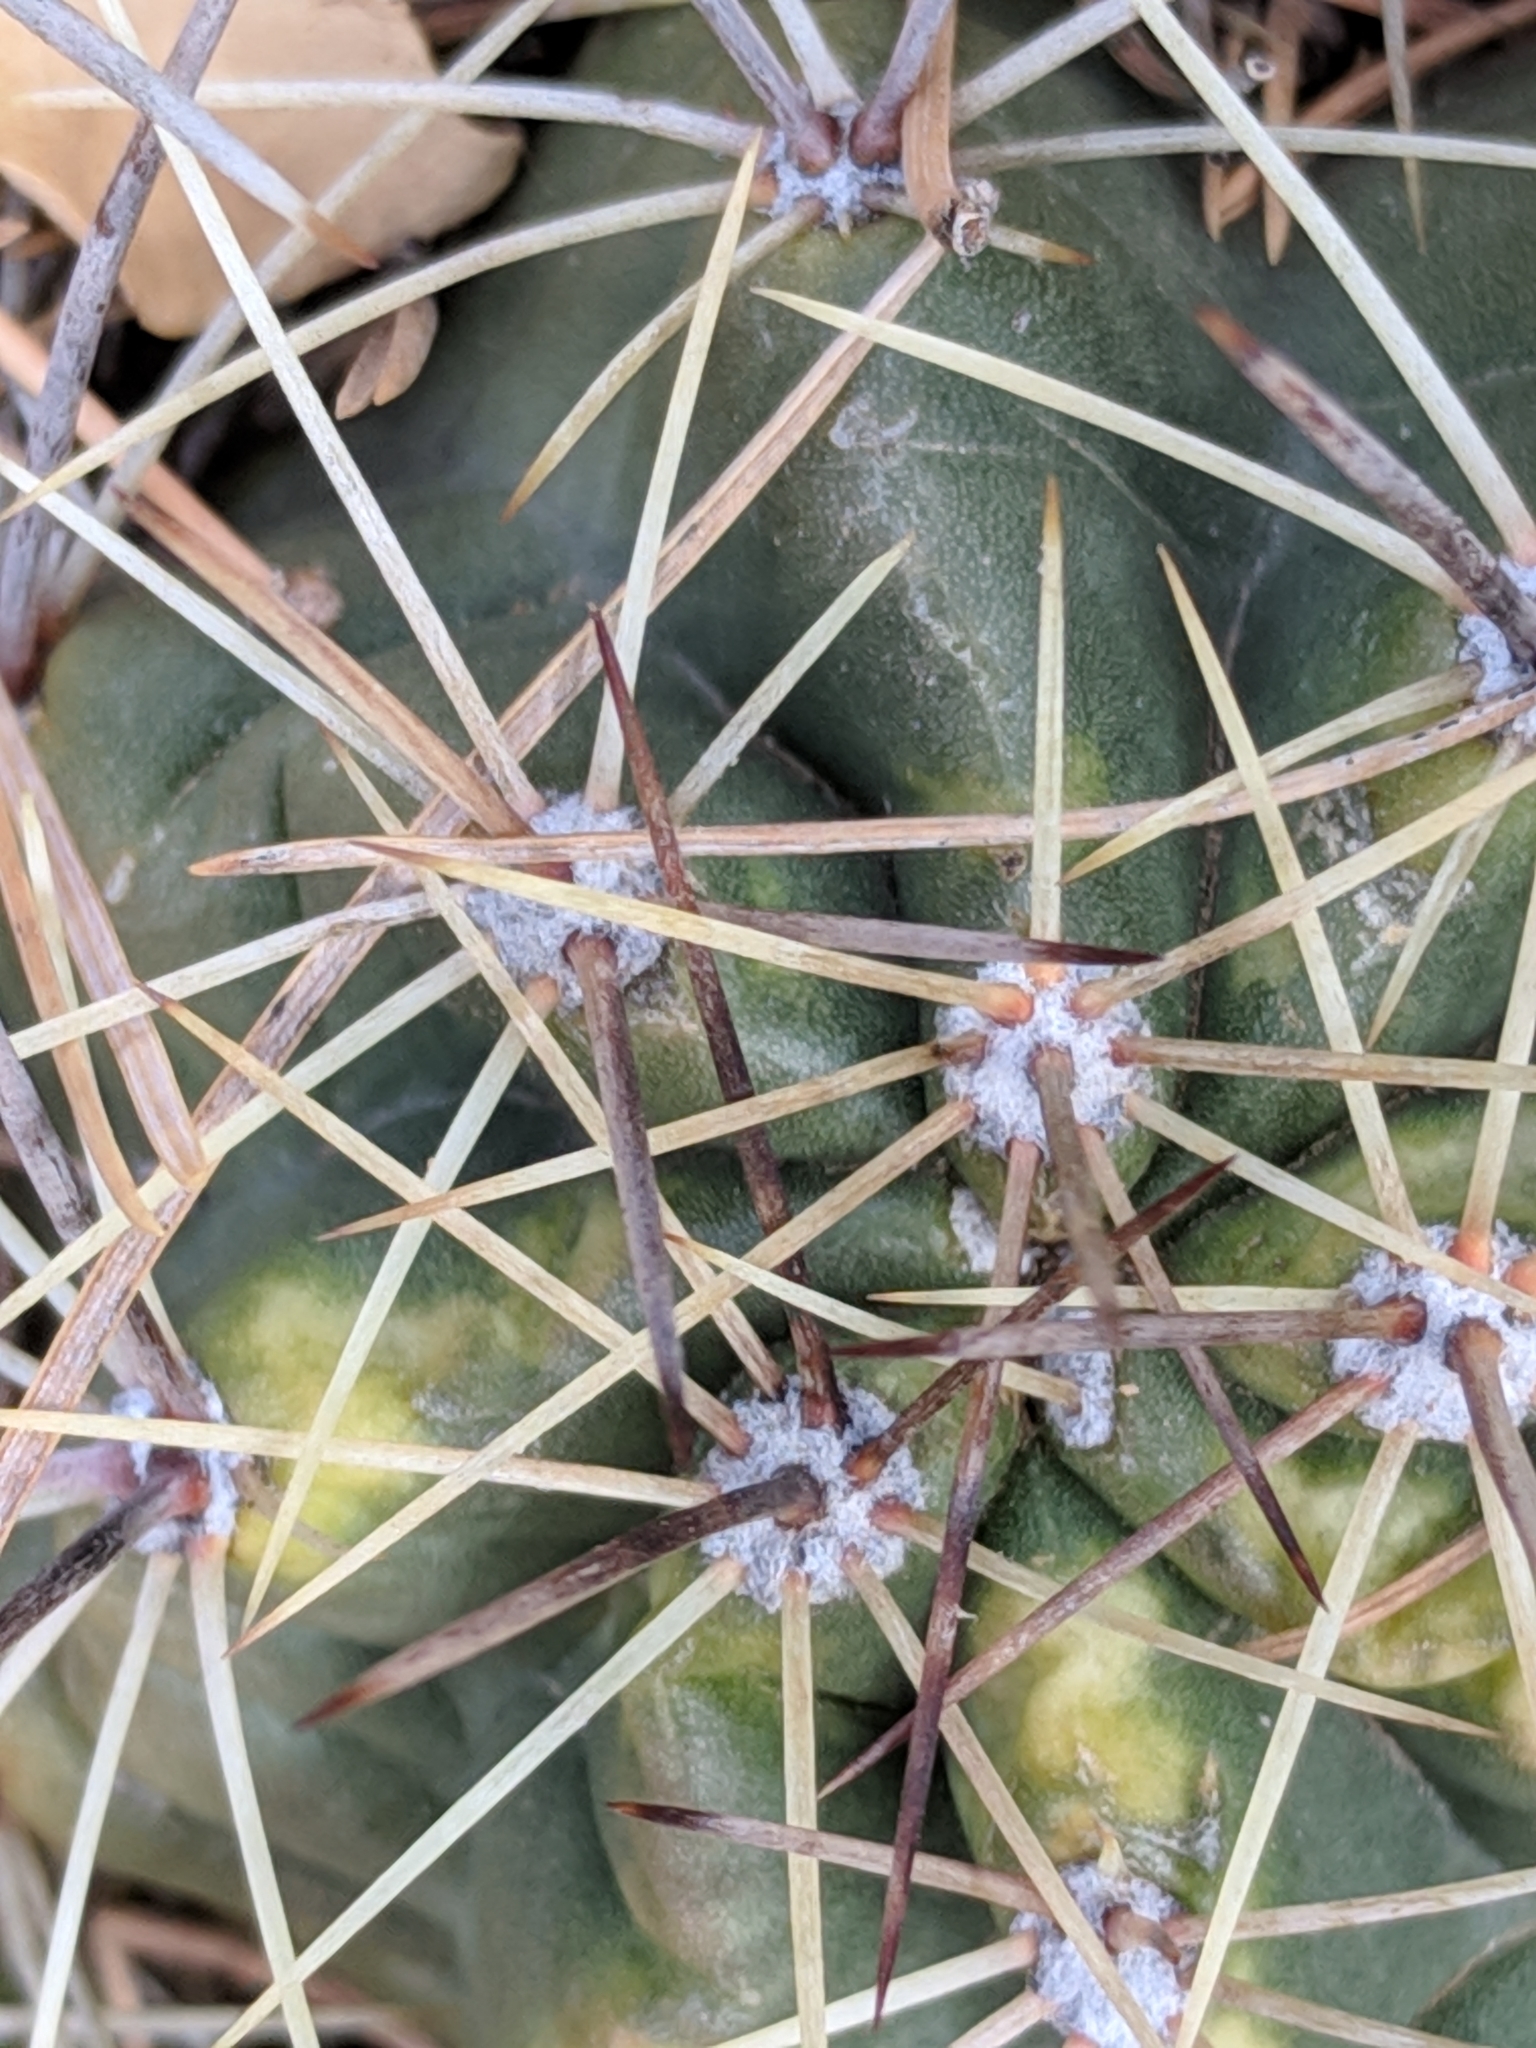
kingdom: Plantae
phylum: Tracheophyta
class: Magnoliopsida
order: Caryophyllales
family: Cactaceae
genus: Echinocereus
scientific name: Echinocereus coccineus
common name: Scarlet hedgehog cactus
